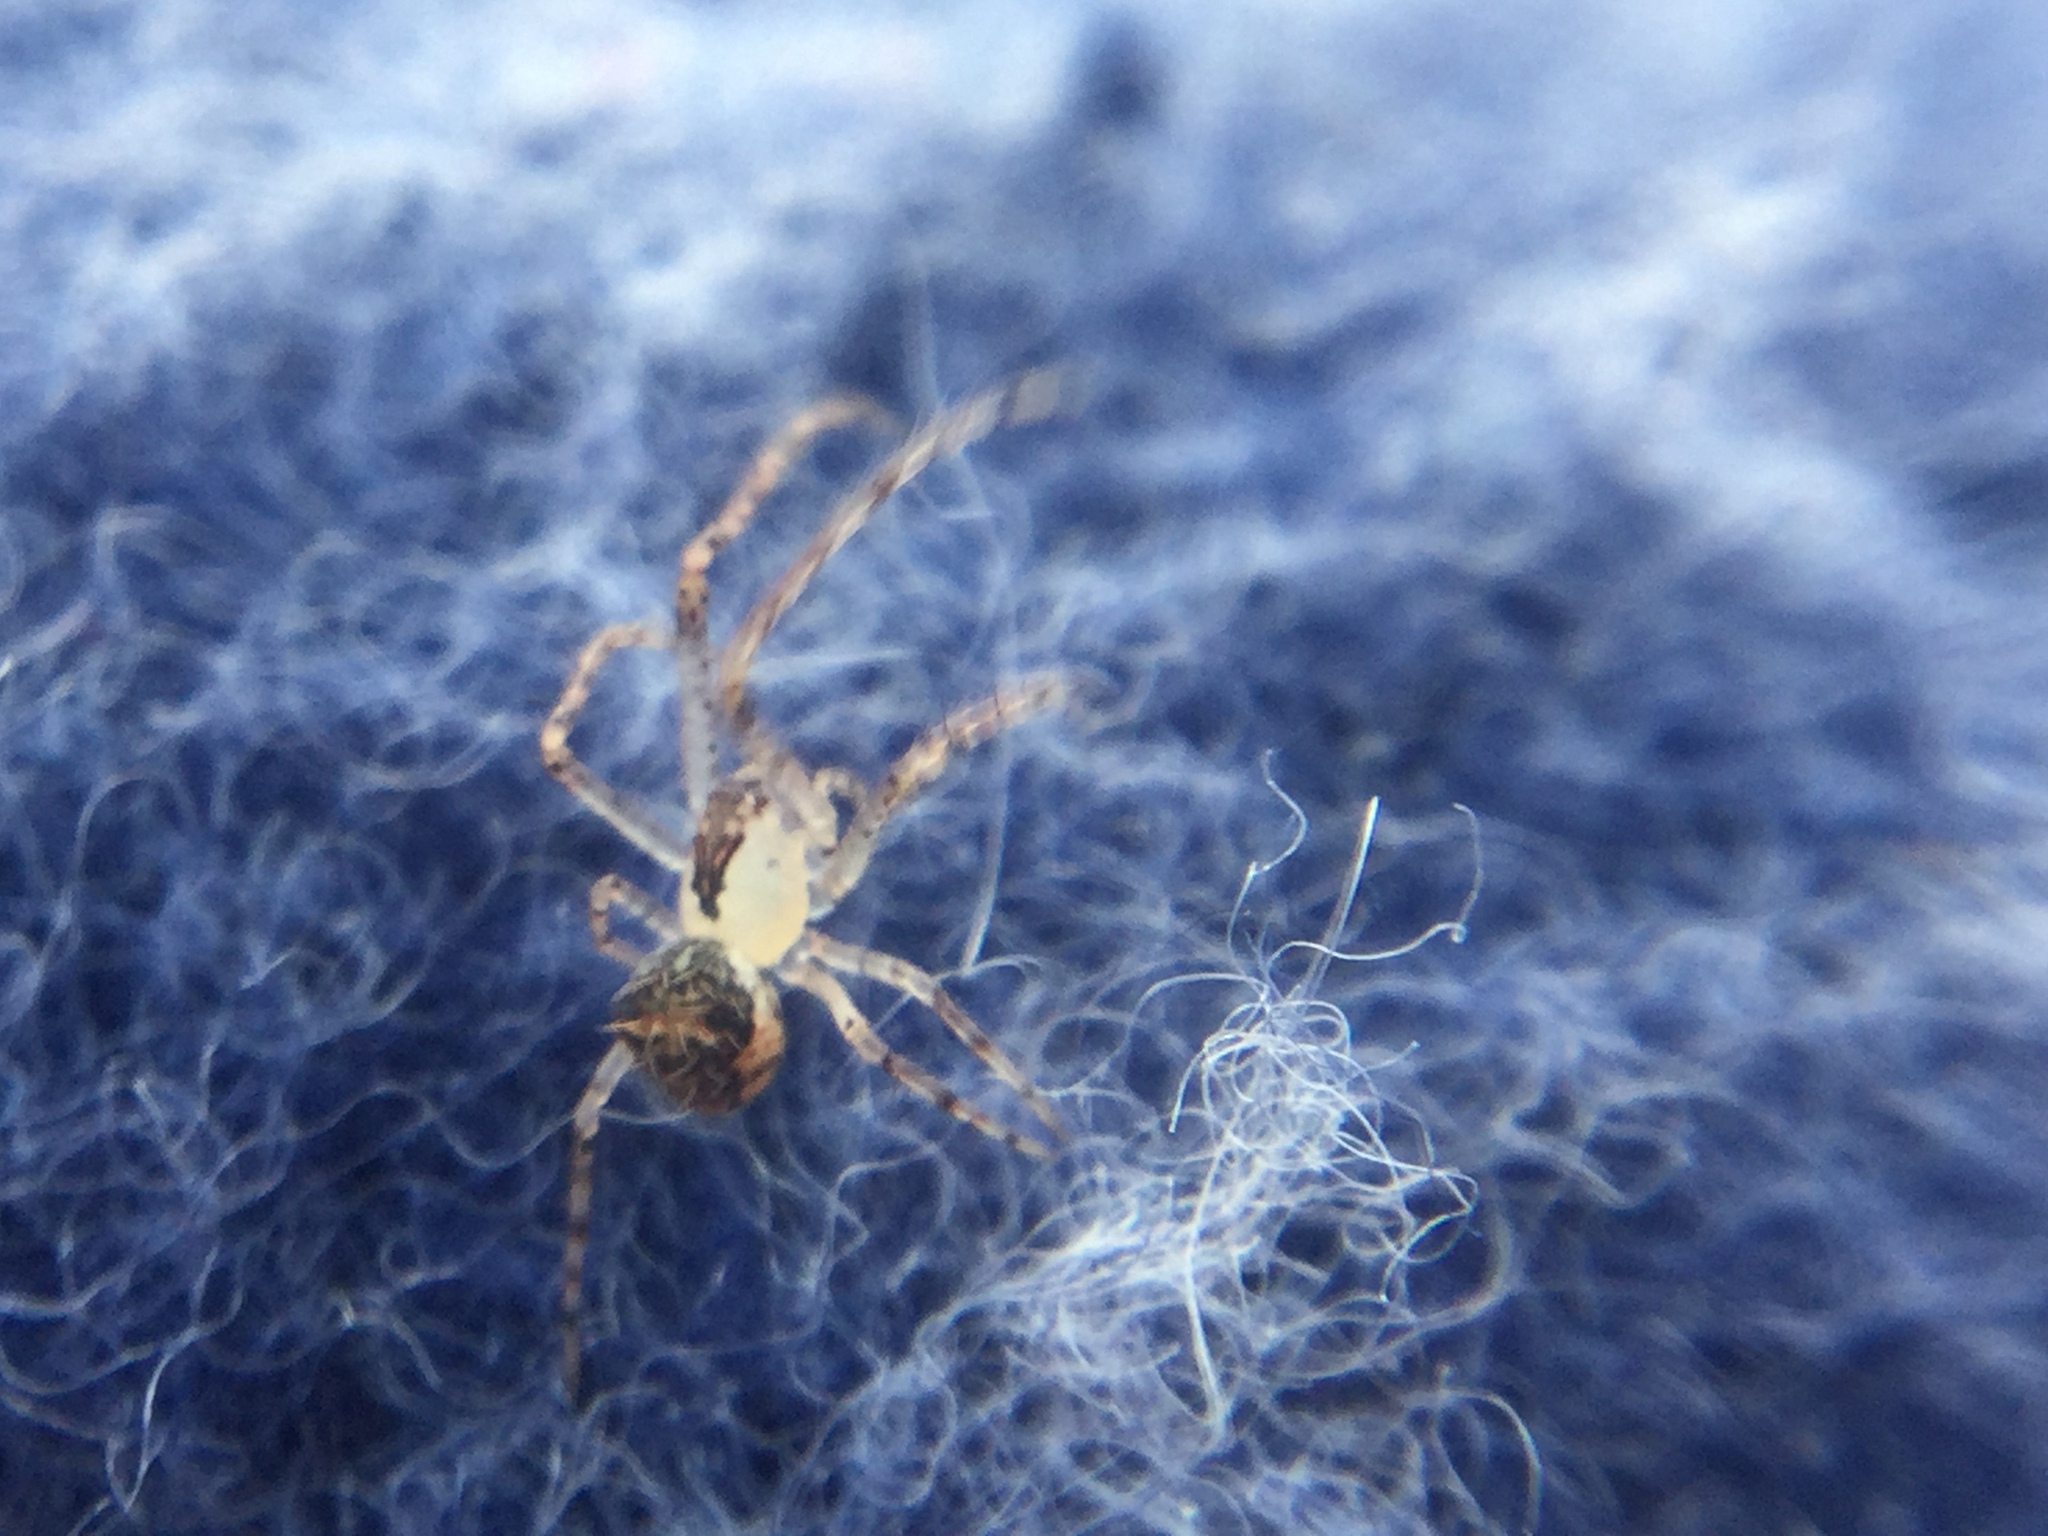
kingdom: Animalia
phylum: Arthropoda
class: Arachnida
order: Araneae
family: Mimetidae
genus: Mimetus
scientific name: Mimetus puritanus
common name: Common pirate spider
